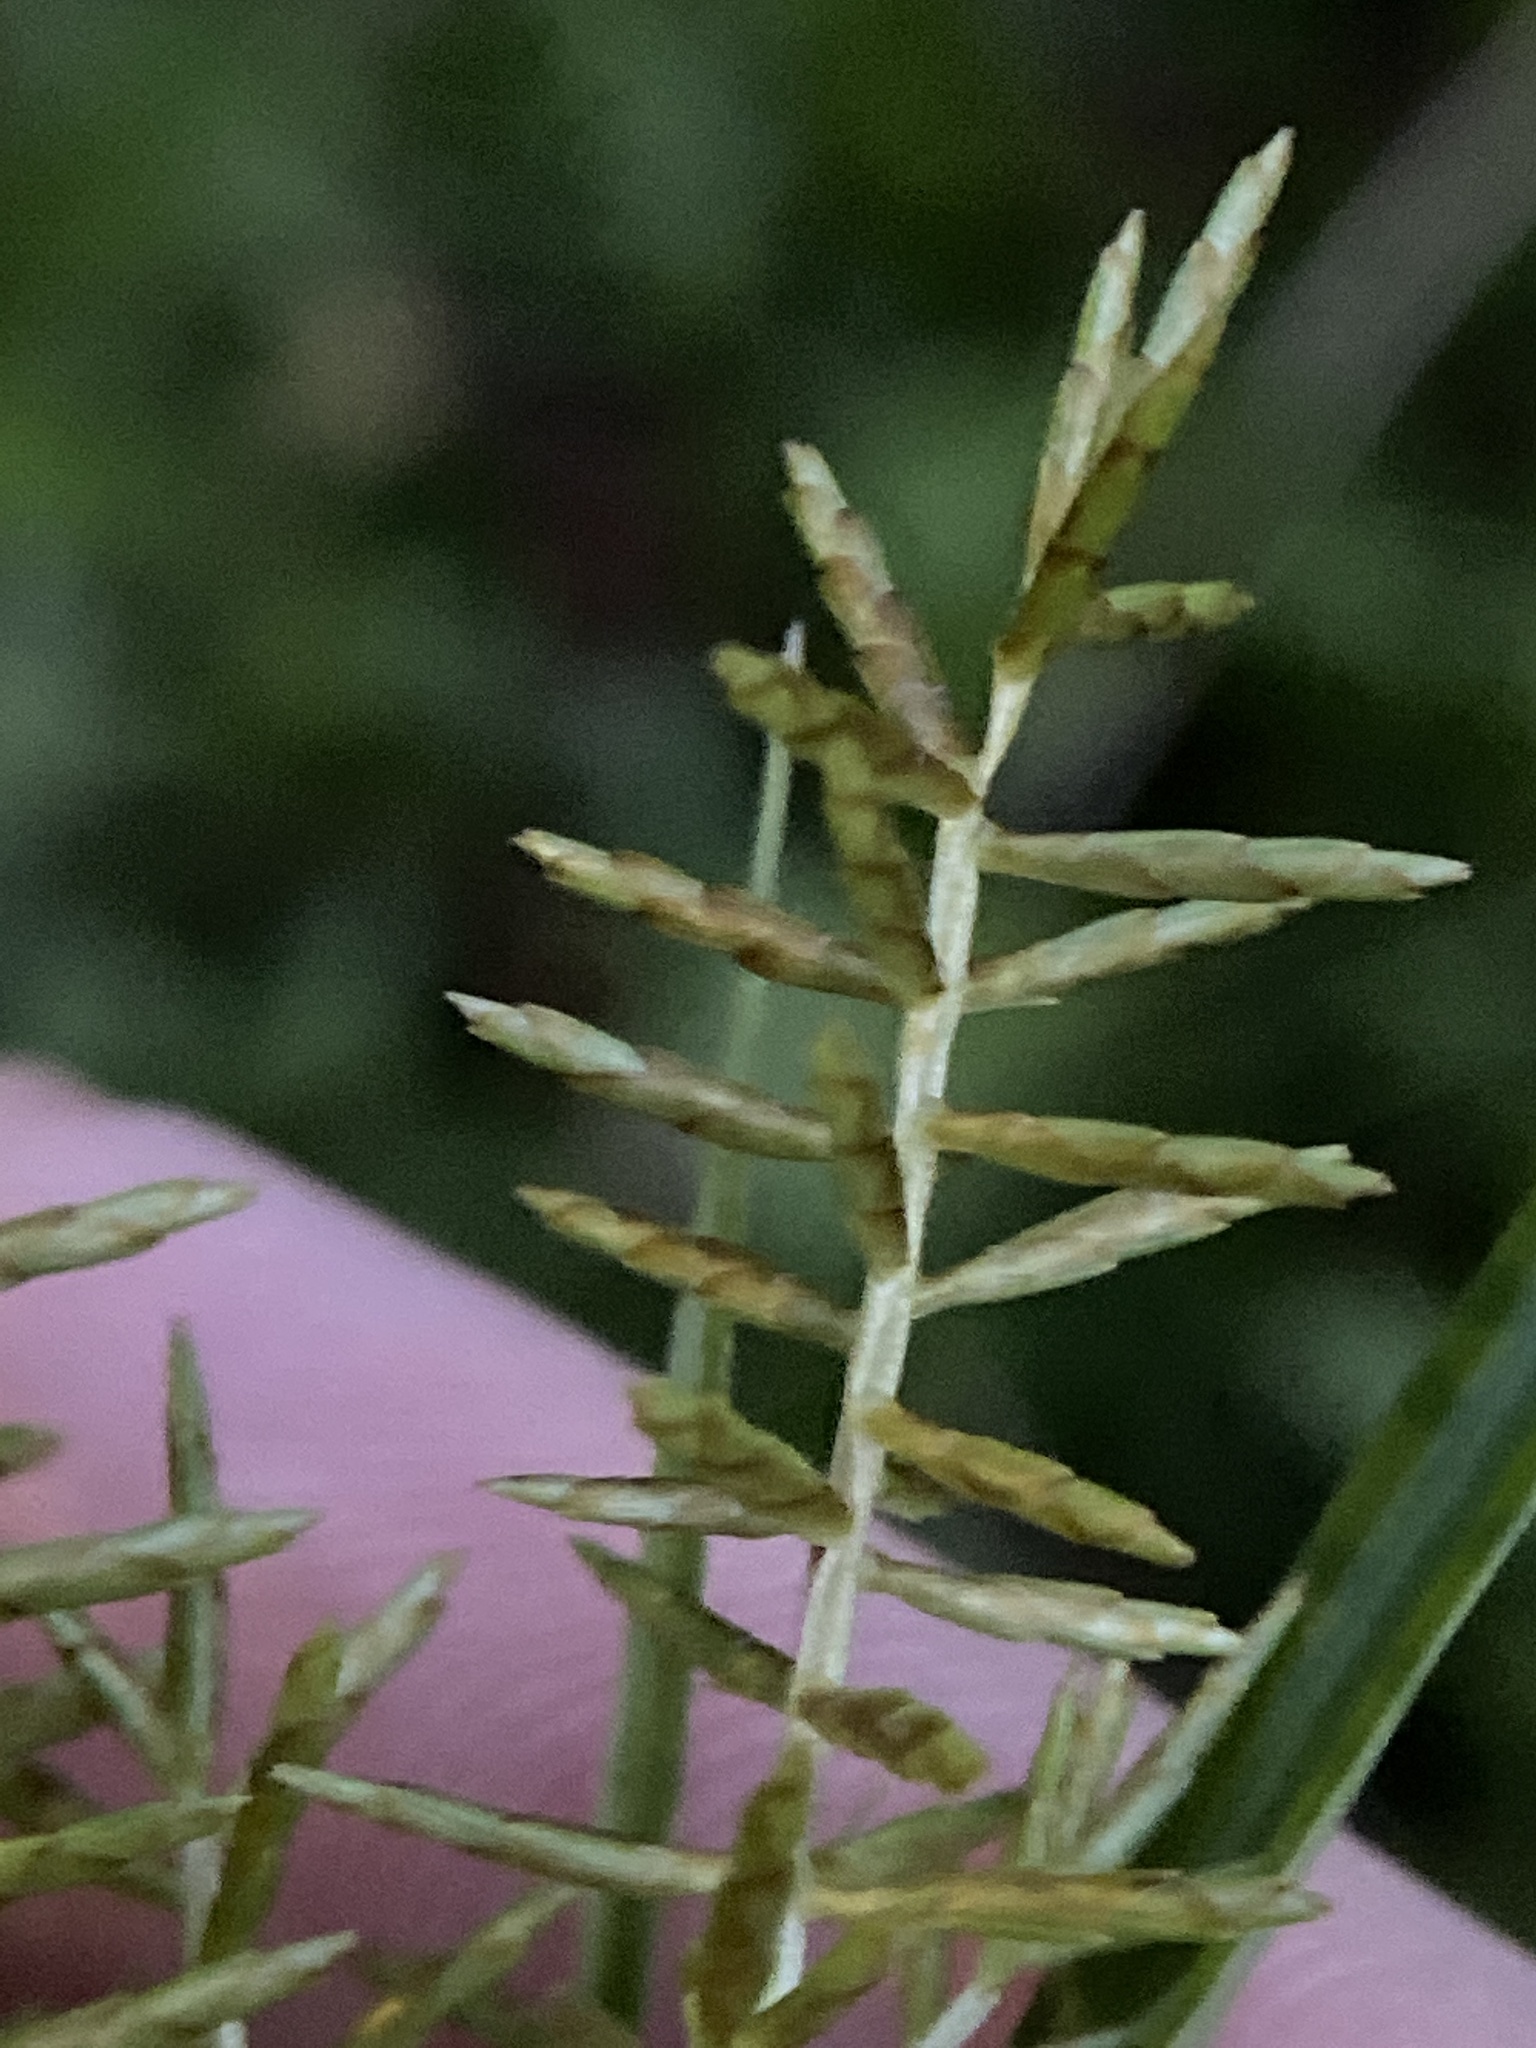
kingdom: Plantae
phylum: Tracheophyta
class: Liliopsida
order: Poales
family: Cyperaceae
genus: Cyperus
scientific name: Cyperus esculentus
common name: Yellow nutsedge
